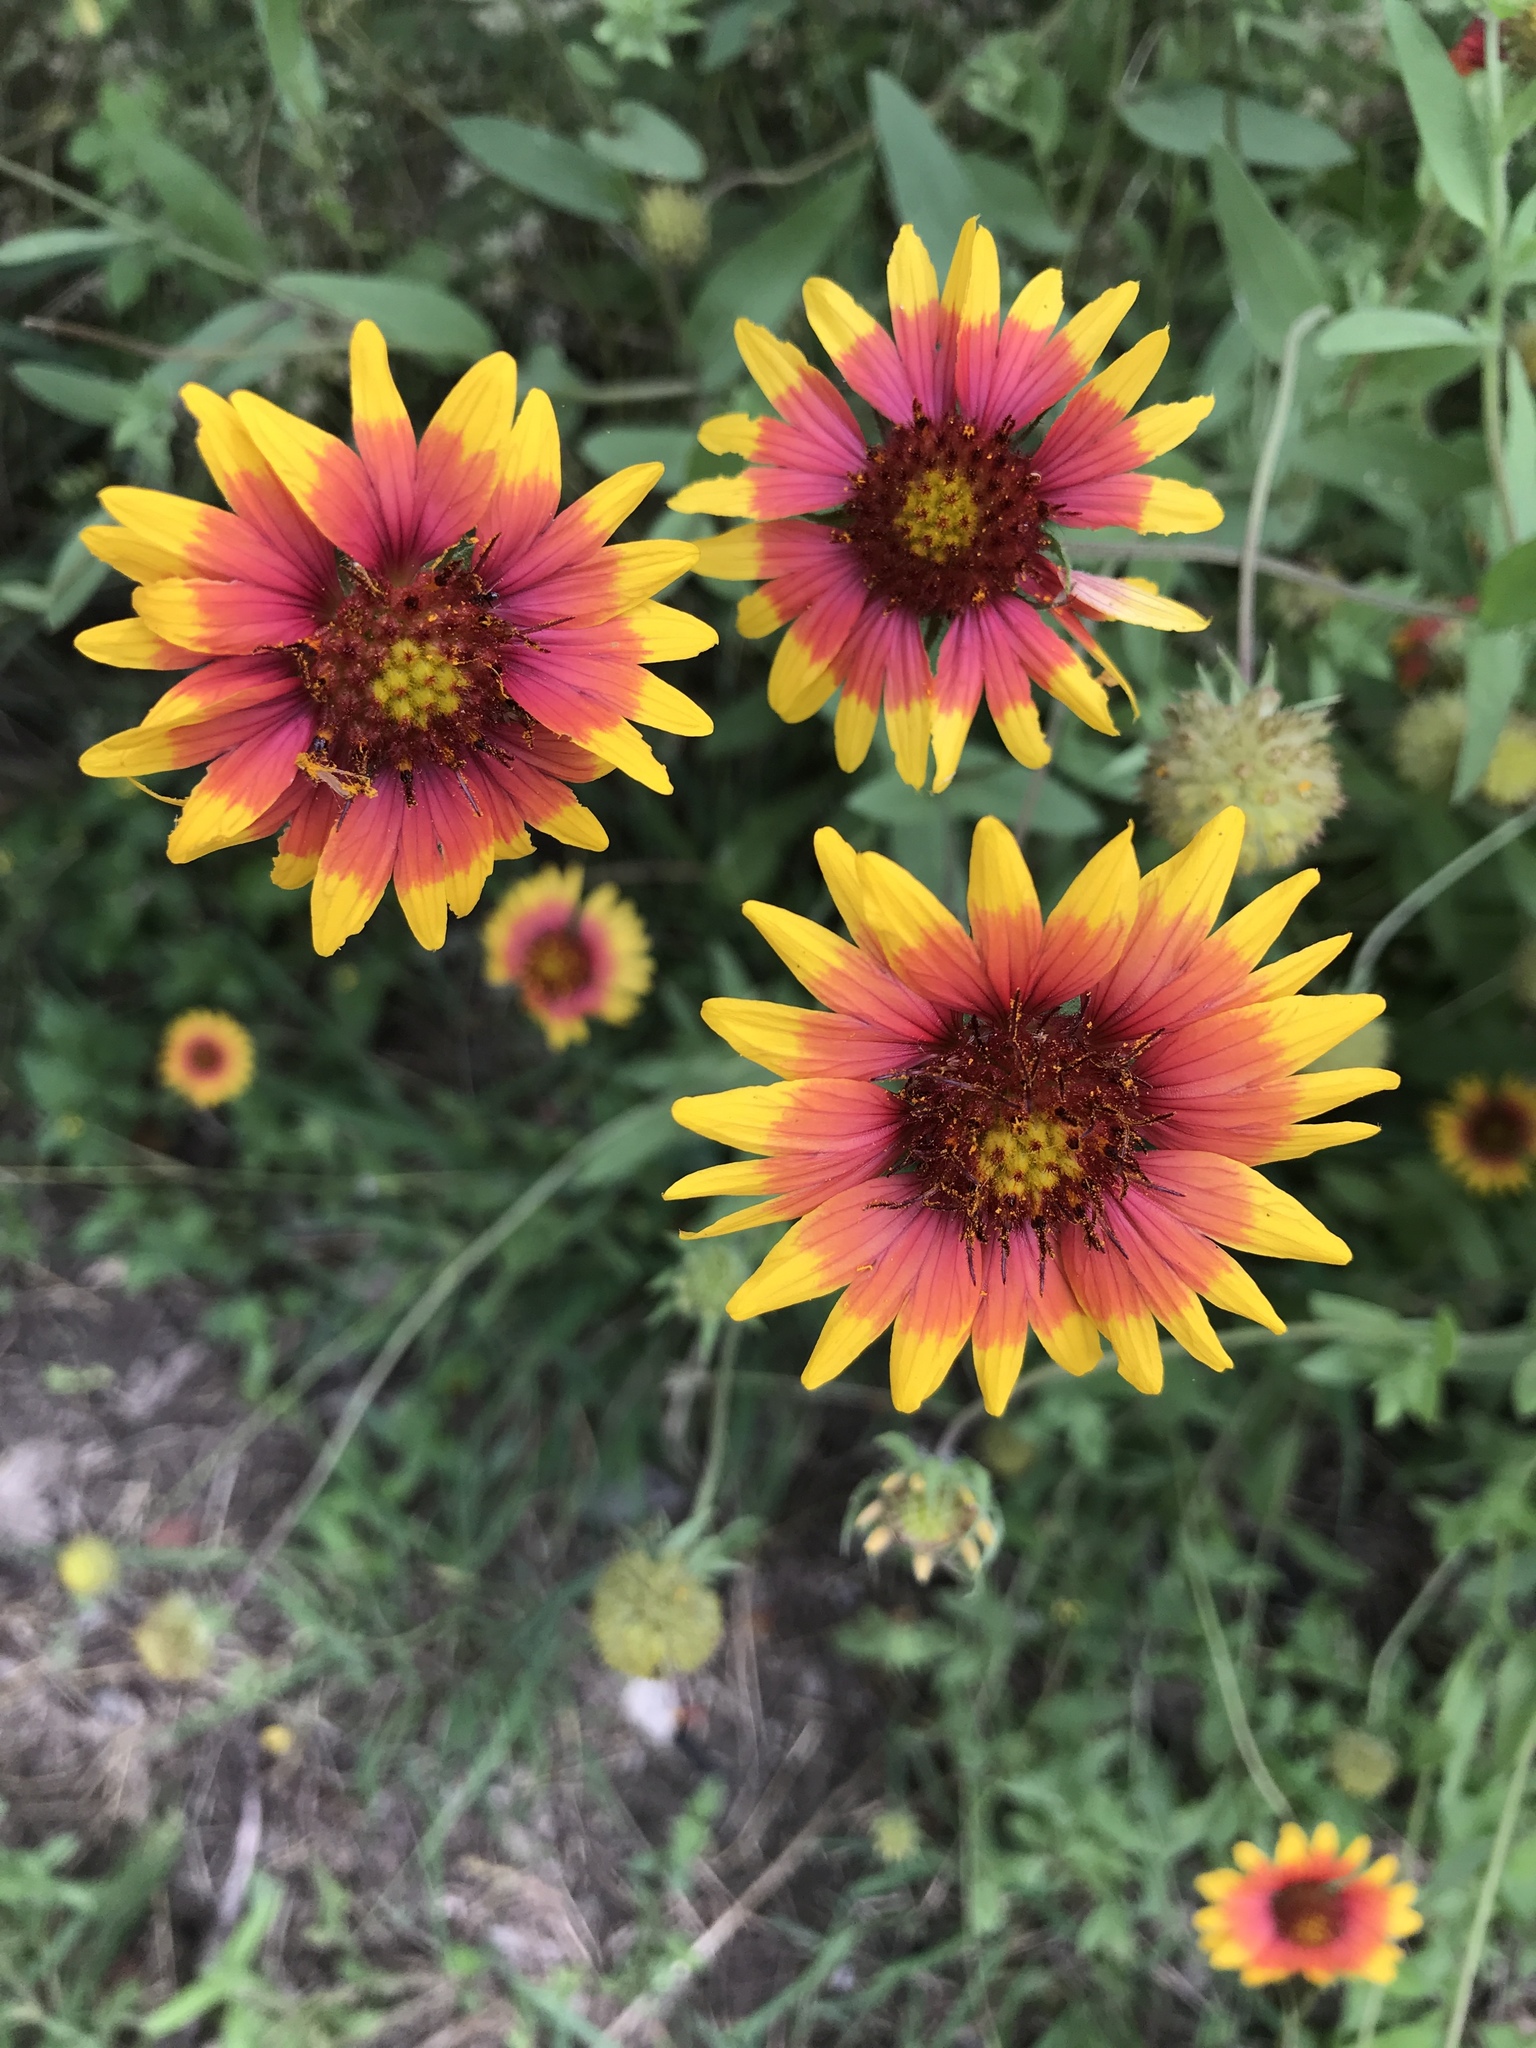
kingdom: Plantae
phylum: Tracheophyta
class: Magnoliopsida
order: Asterales
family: Asteraceae
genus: Gaillardia
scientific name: Gaillardia pulchella
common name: Firewheel
